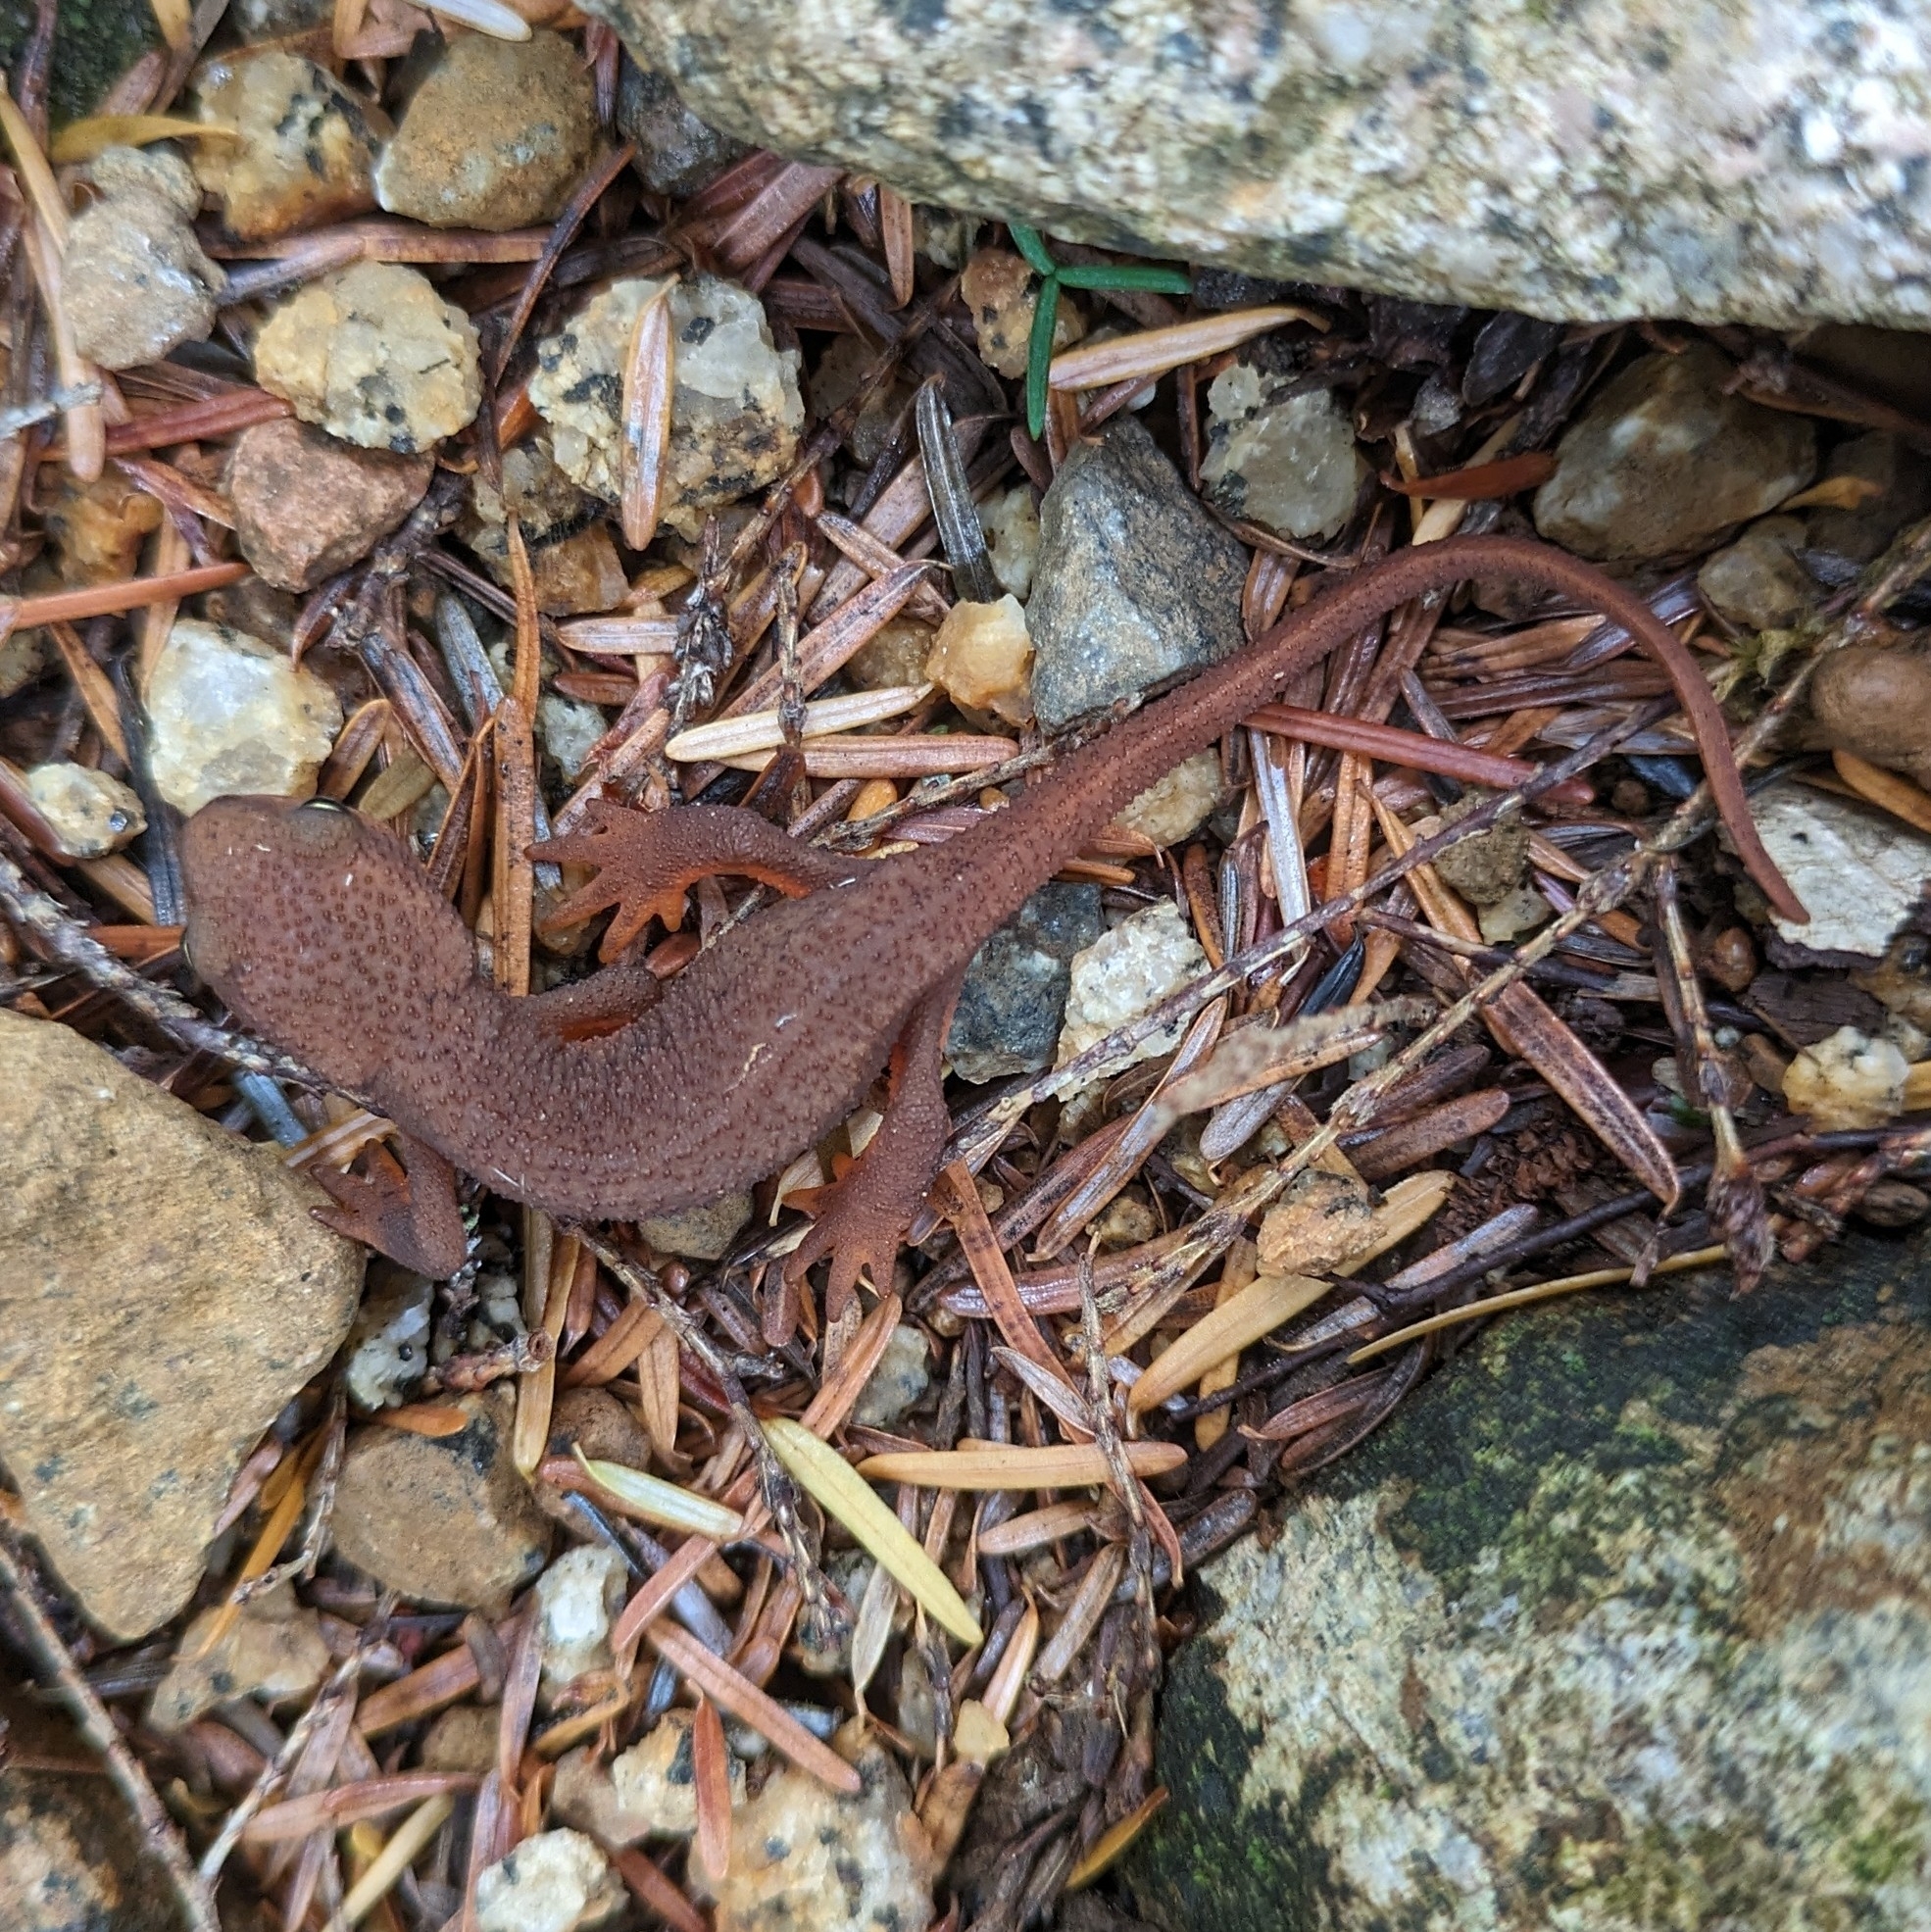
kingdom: Animalia
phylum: Chordata
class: Amphibia
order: Caudata
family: Salamandridae
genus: Taricha
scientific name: Taricha granulosa
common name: Roughskin newt
